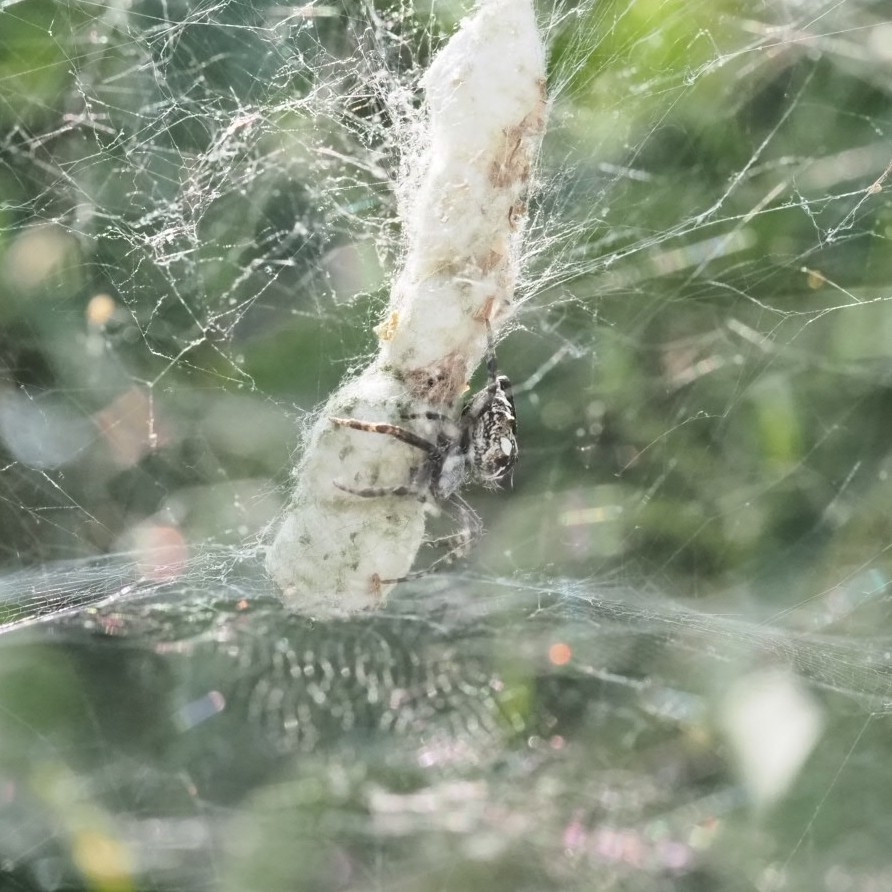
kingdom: Animalia
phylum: Arthropoda
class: Arachnida
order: Araneae
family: Araneidae
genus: Cyrtophora
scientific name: Cyrtophora citricola
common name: Orb weavers
